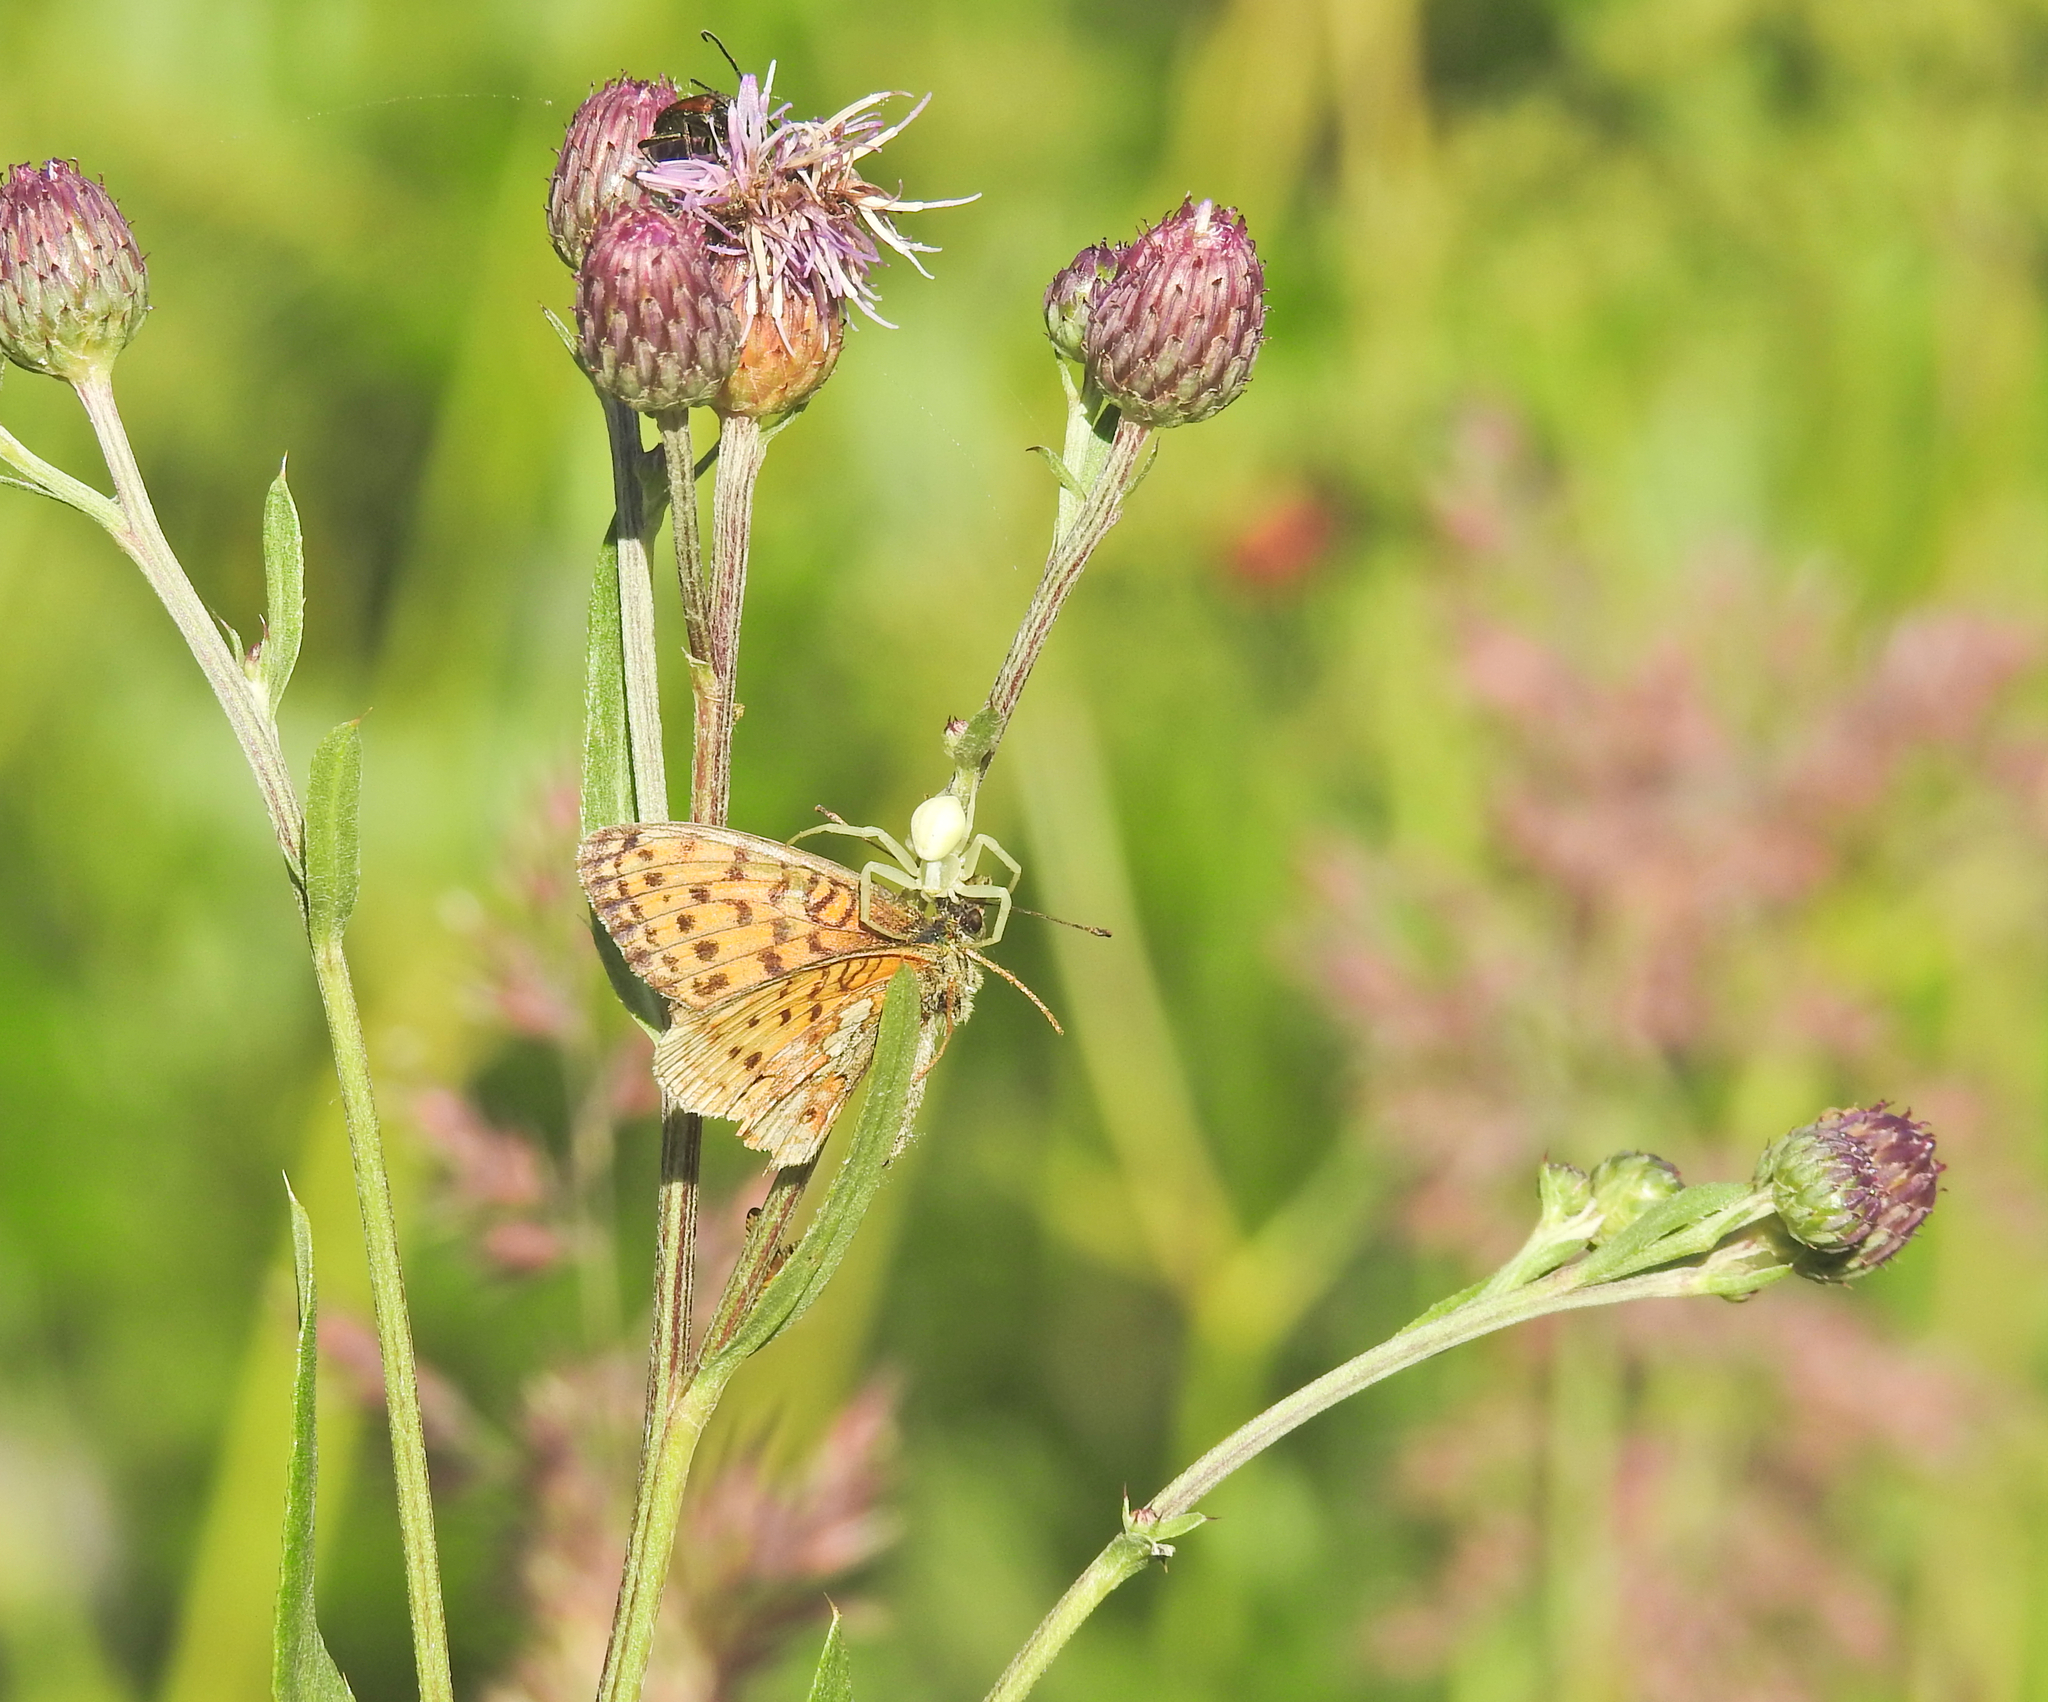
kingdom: Animalia
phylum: Arthropoda
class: Arachnida
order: Araneae
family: Thomisidae
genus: Misumena
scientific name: Misumena vatia
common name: Goldenrod crab spider
